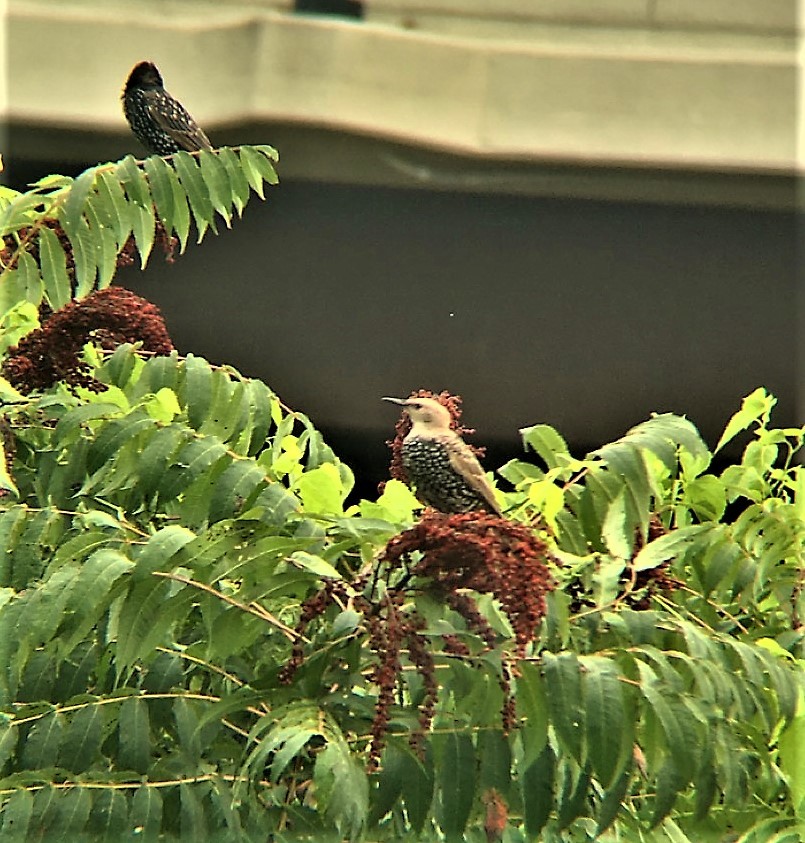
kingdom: Animalia
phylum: Chordata
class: Aves
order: Passeriformes
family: Sturnidae
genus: Sturnus
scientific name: Sturnus vulgaris
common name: Common starling
